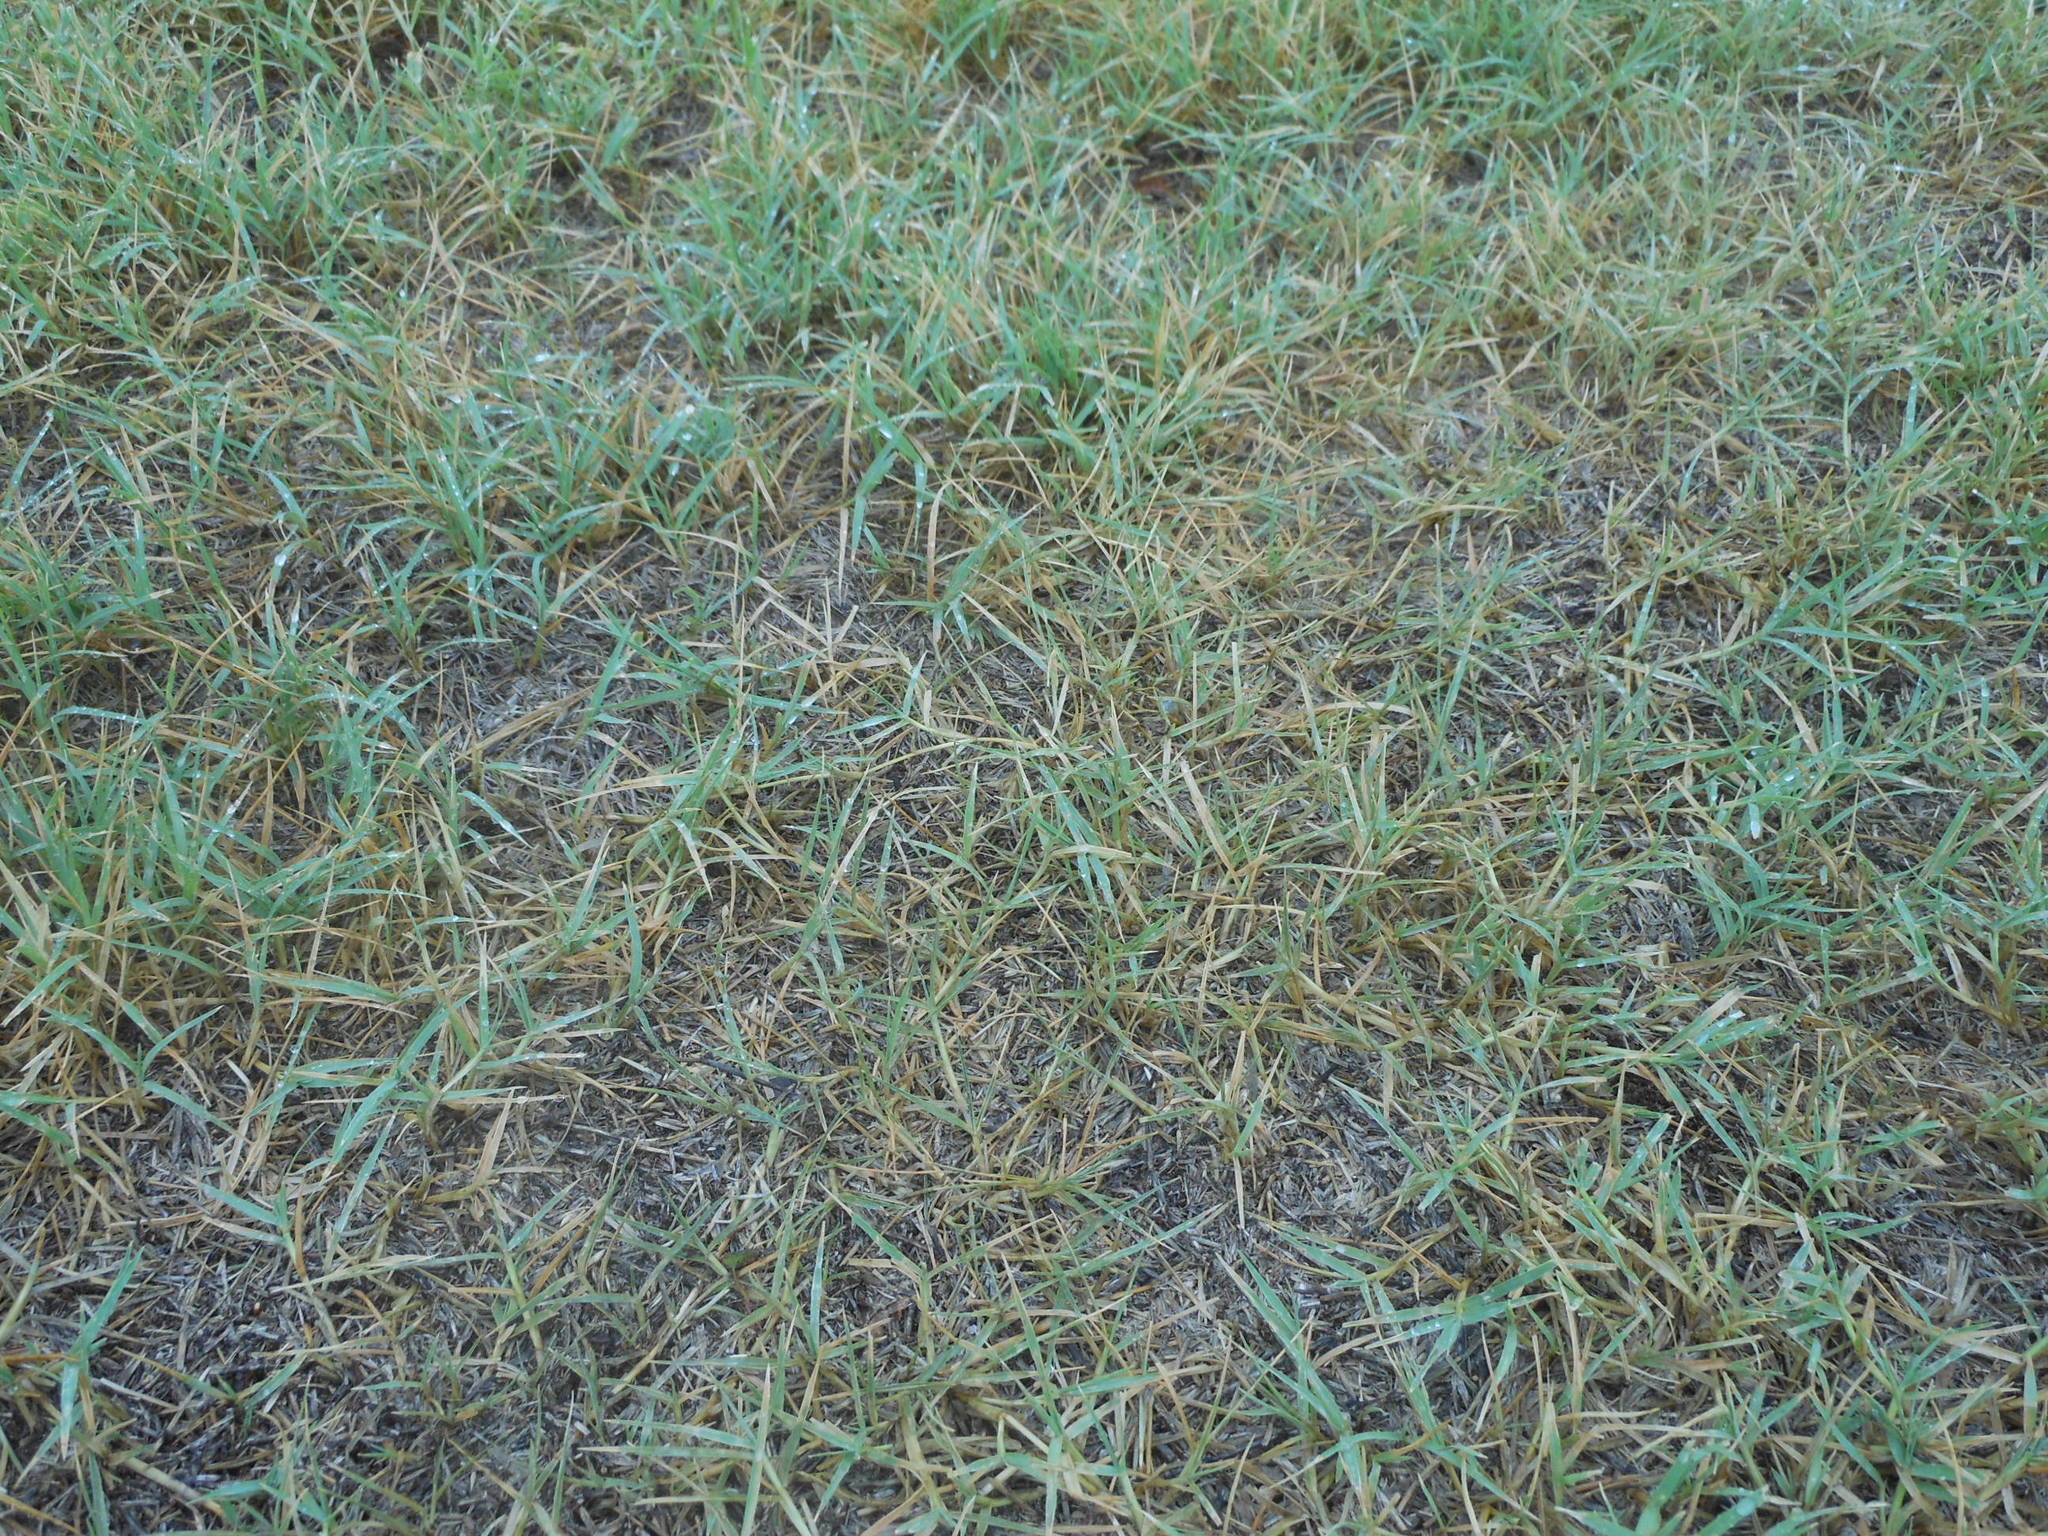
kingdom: Plantae
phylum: Tracheophyta
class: Liliopsida
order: Poales
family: Poaceae
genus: Cynodon
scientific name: Cynodon dactylon
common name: Bermuda grass
